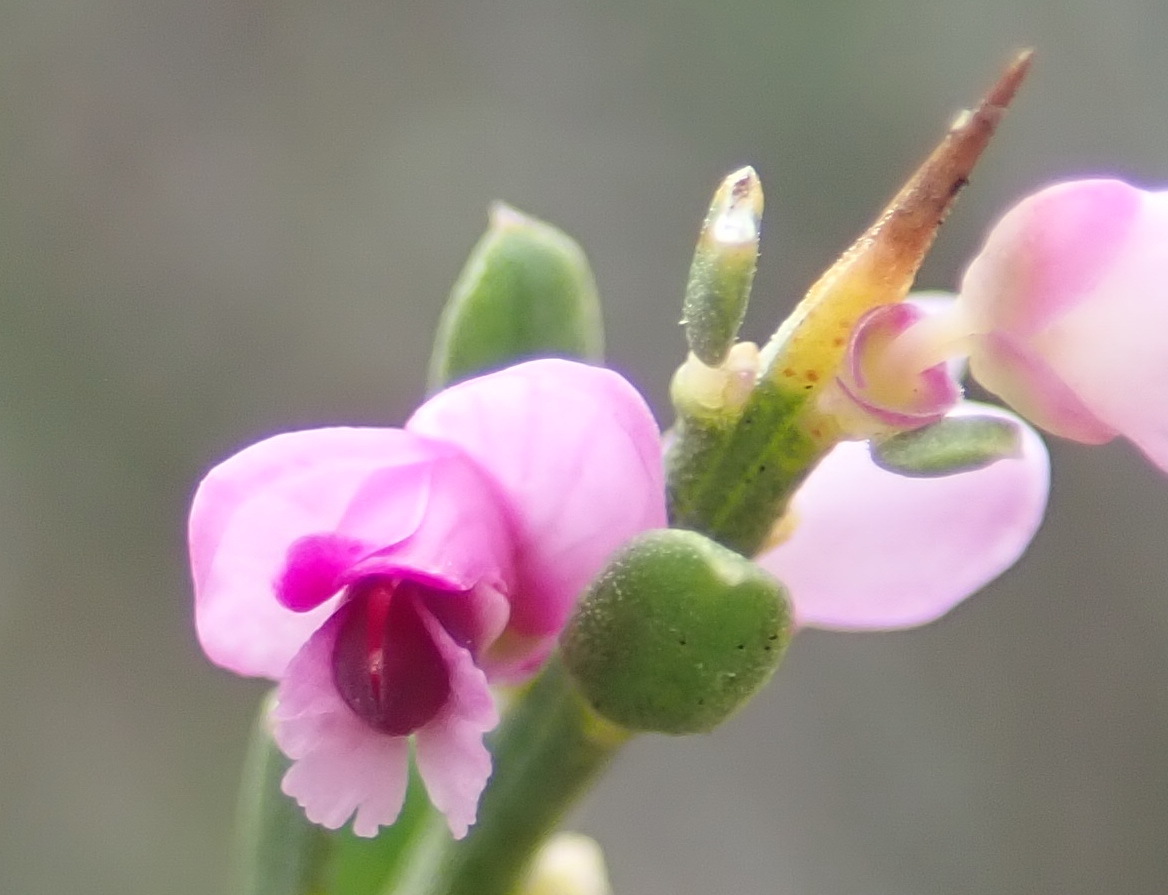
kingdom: Plantae
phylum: Tracheophyta
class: Magnoliopsida
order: Fabales
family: Polygalaceae
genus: Muraltia
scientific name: Muraltia spinosa
